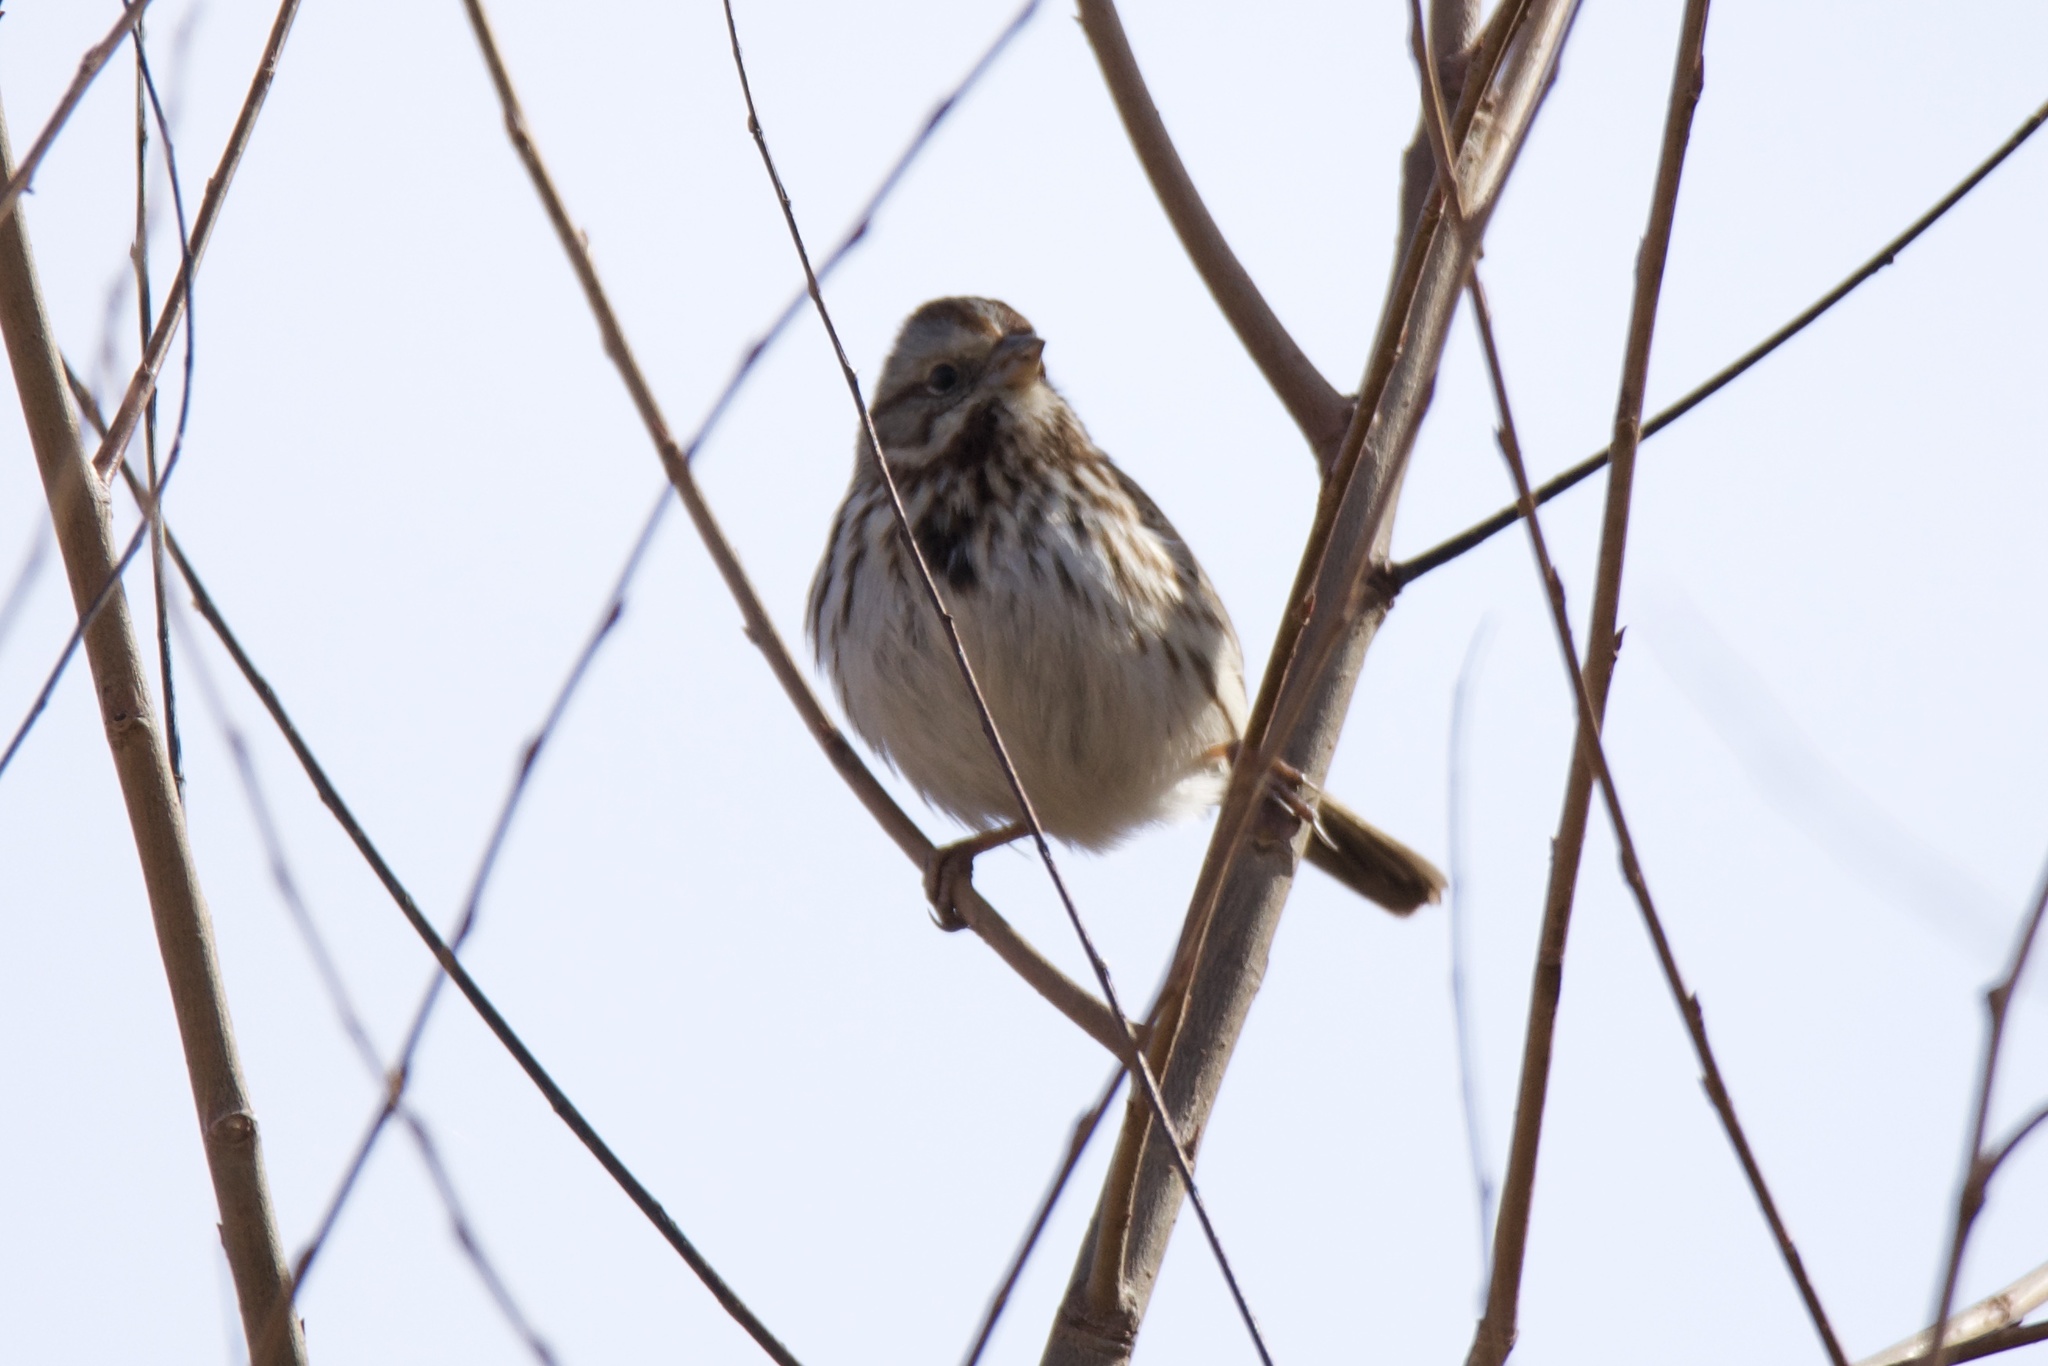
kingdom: Animalia
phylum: Chordata
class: Aves
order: Passeriformes
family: Passerellidae
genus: Melospiza
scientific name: Melospiza melodia
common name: Song sparrow
